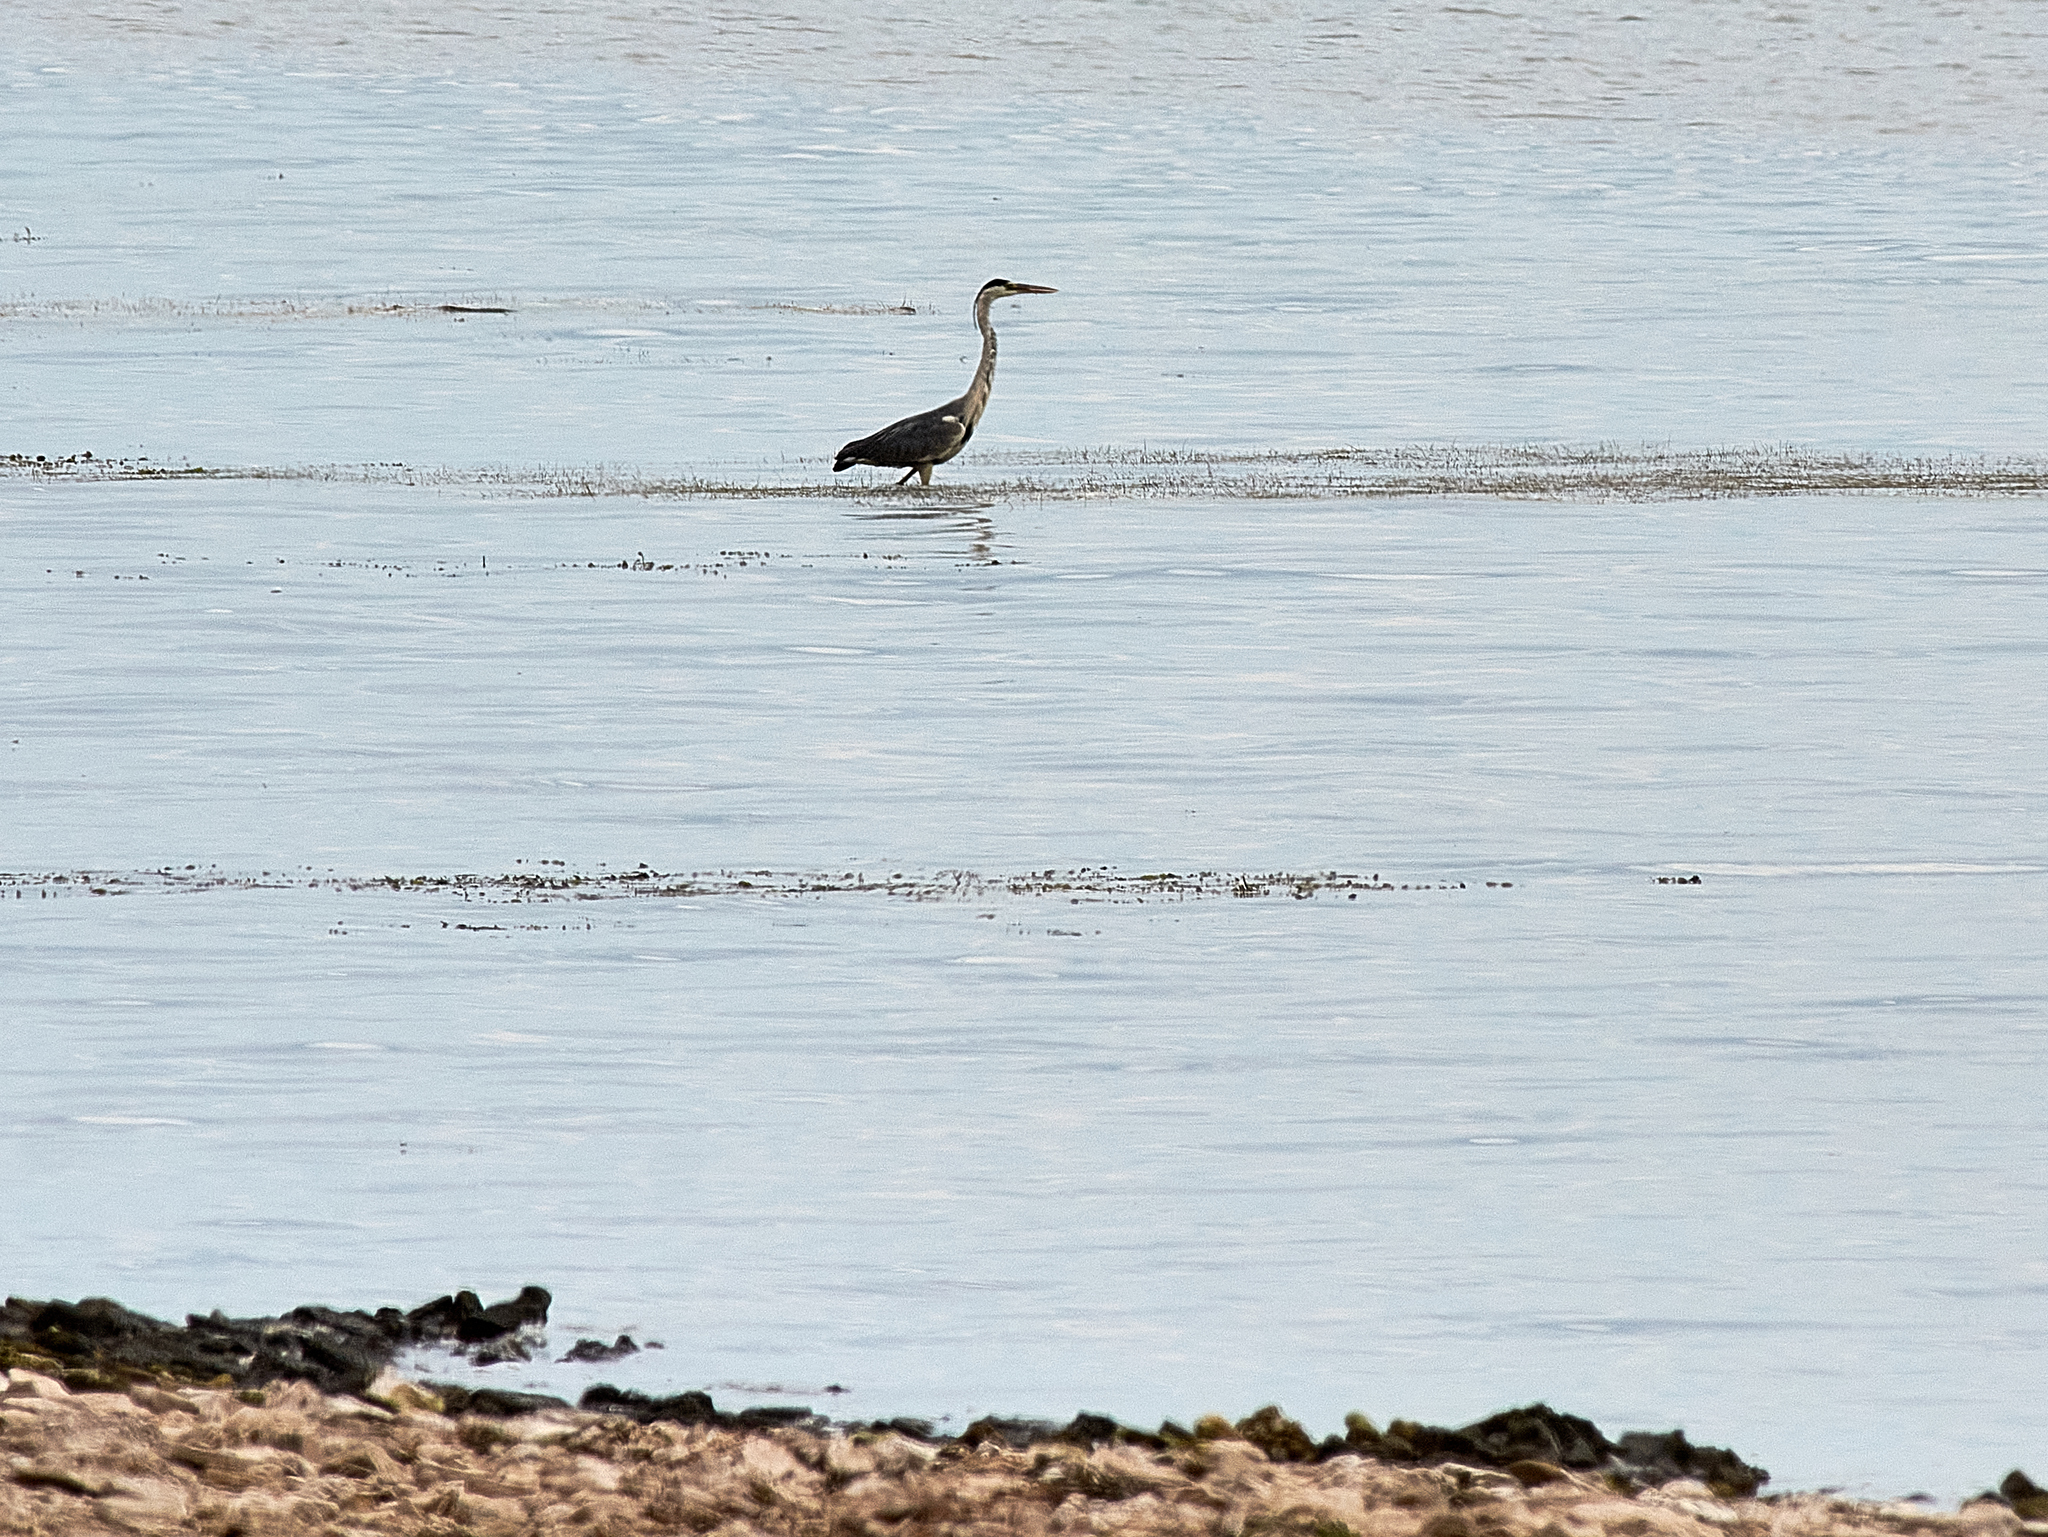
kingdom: Animalia
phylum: Chordata
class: Aves
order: Pelecaniformes
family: Ardeidae
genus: Ardea
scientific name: Ardea cinerea
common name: Grey heron
